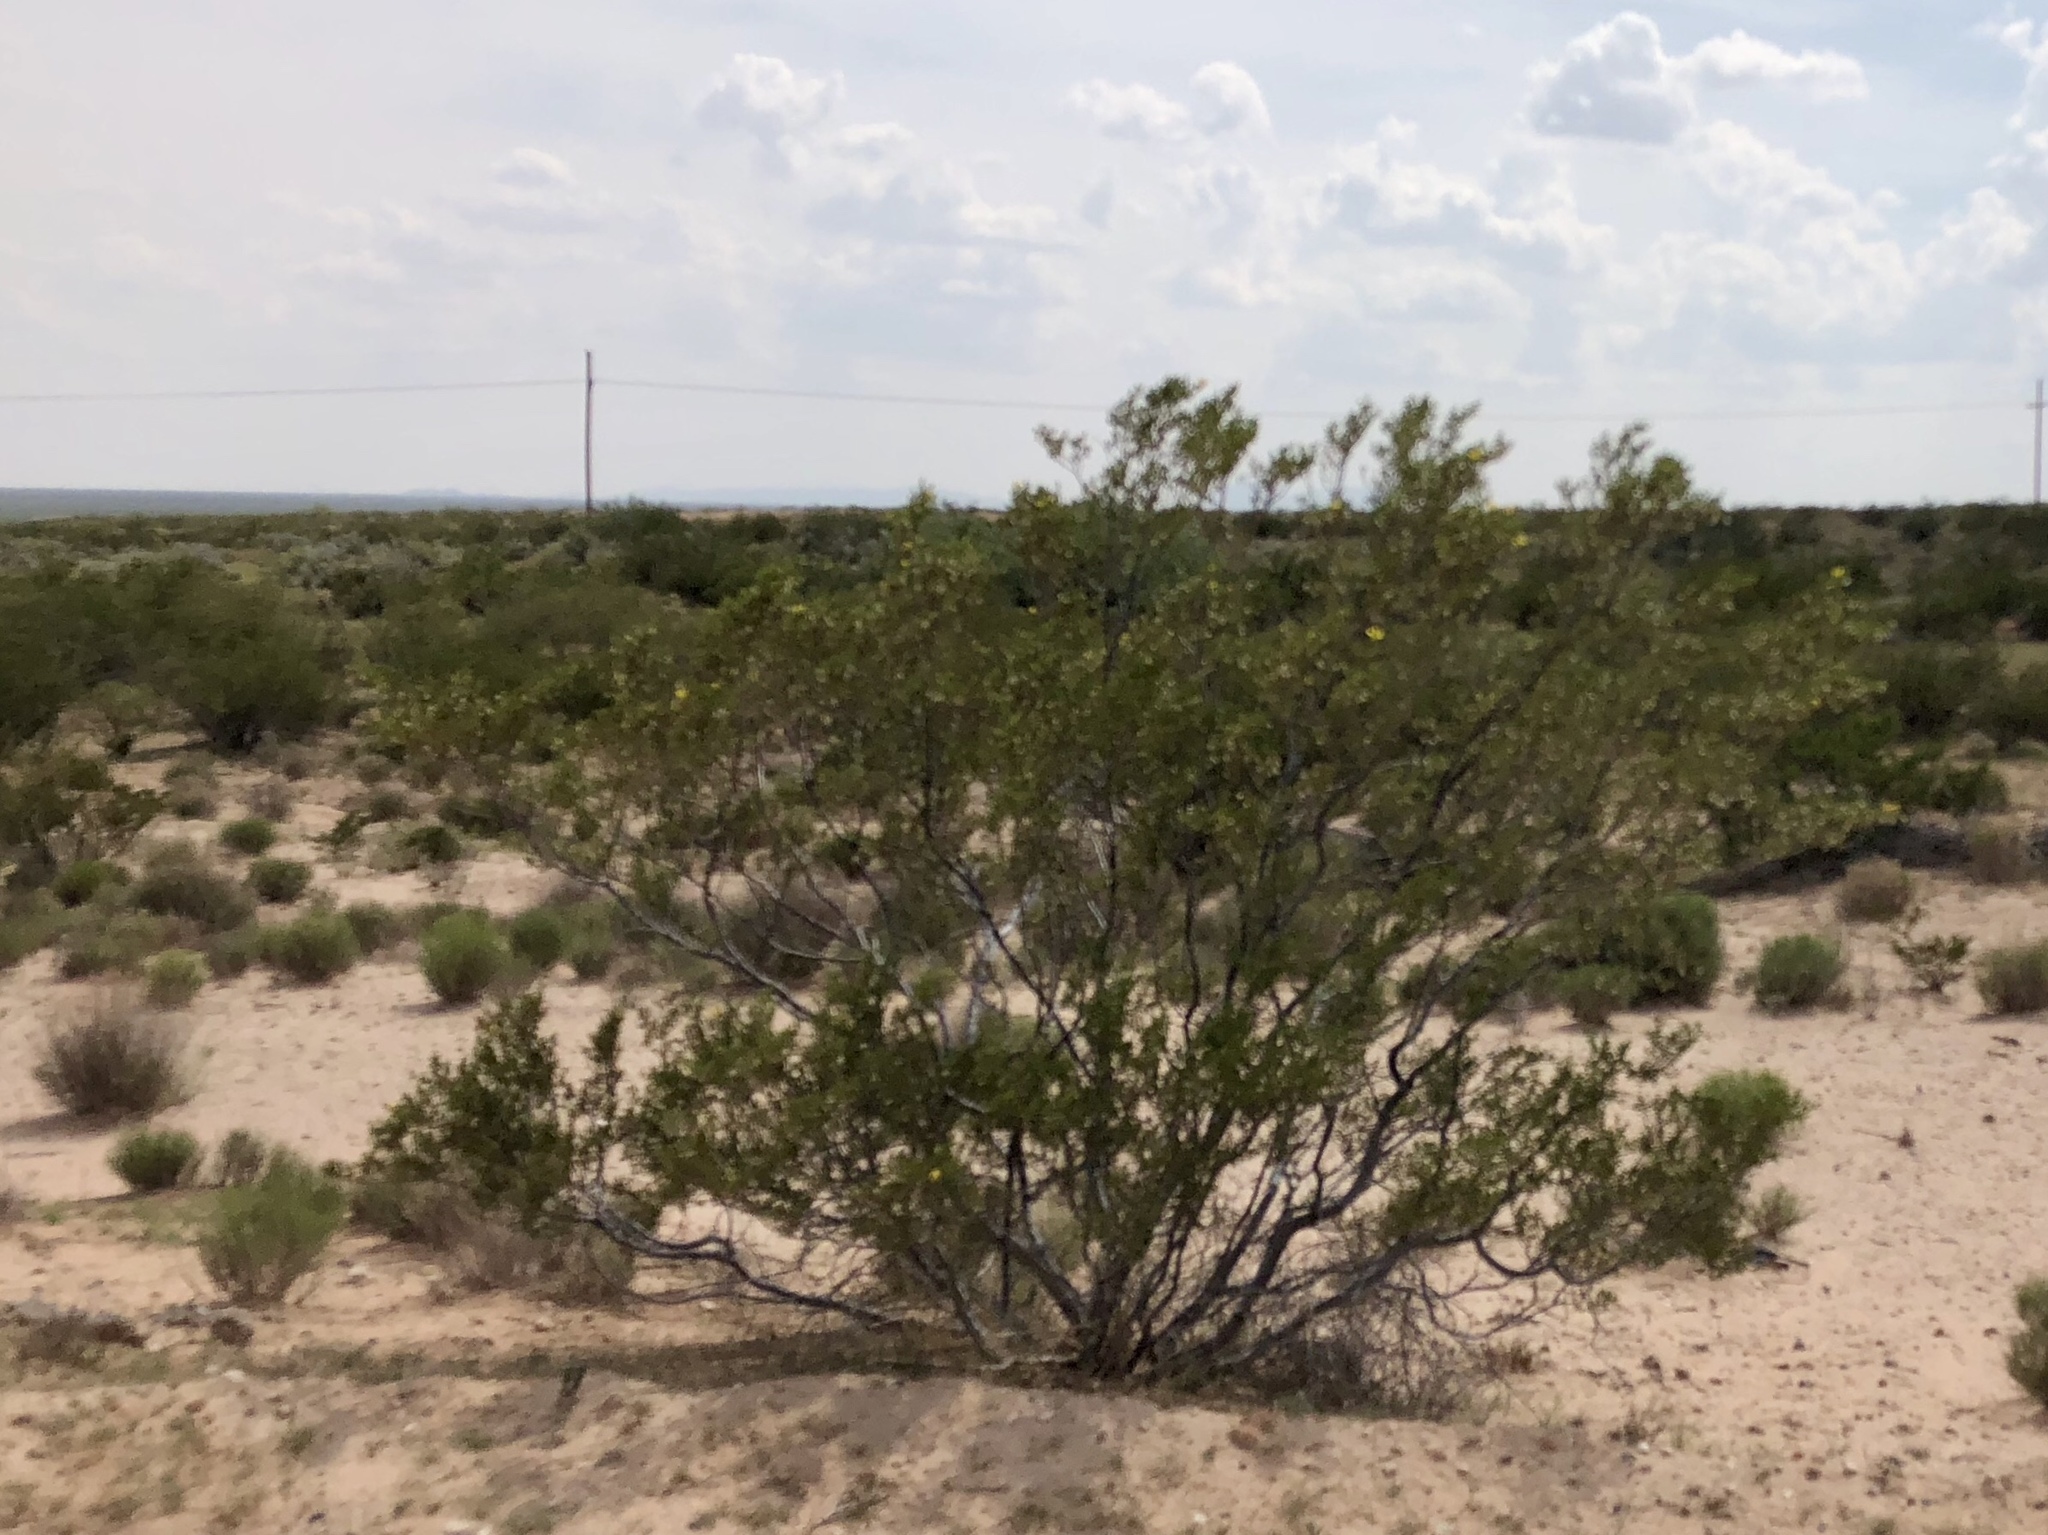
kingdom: Plantae
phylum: Tracheophyta
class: Magnoliopsida
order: Zygophyllales
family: Zygophyllaceae
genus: Larrea
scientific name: Larrea tridentata
